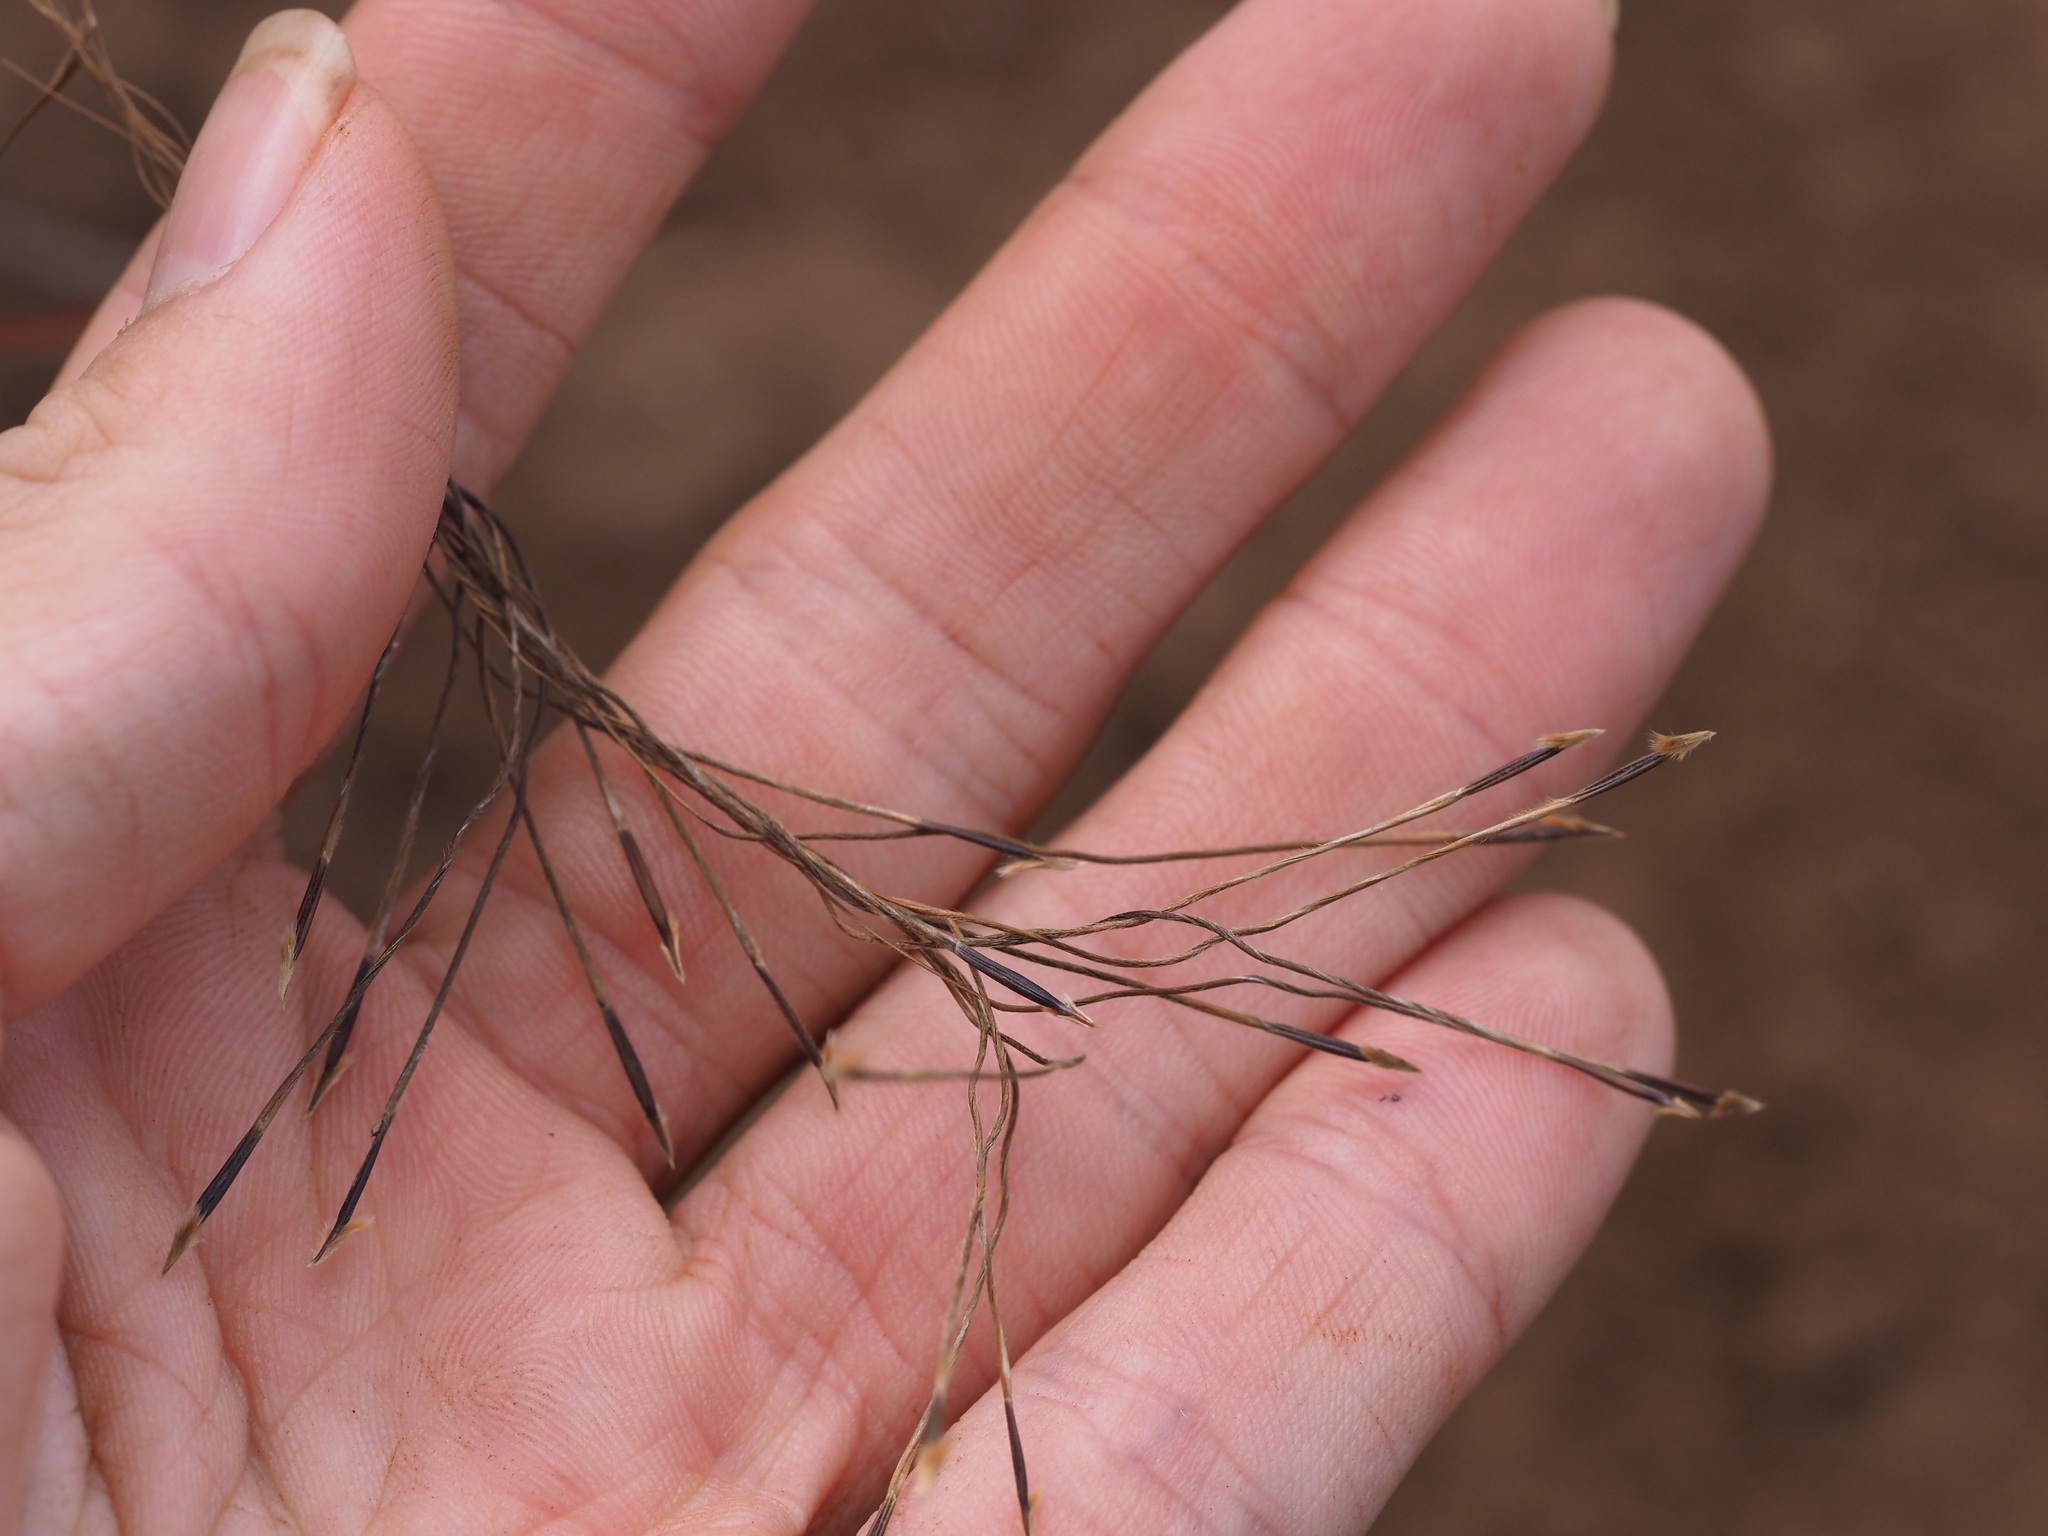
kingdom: Plantae
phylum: Tracheophyta
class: Liliopsida
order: Poales
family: Poaceae
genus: Heteropogon
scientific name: Heteropogon contortus
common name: Tanglehead
